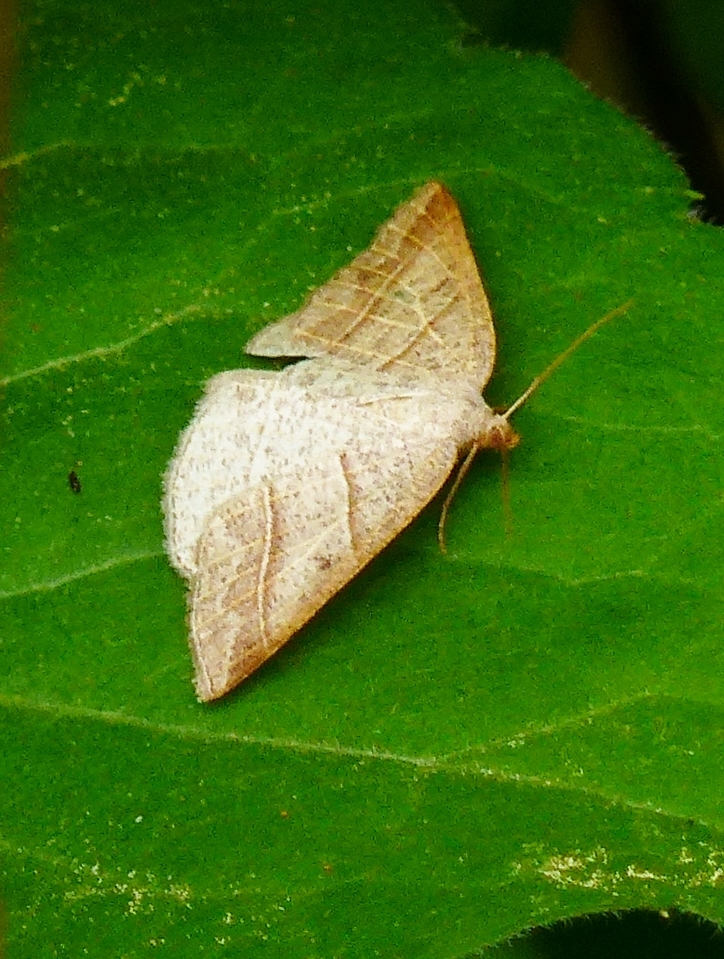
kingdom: Animalia
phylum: Arthropoda
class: Insecta
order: Lepidoptera
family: Pterophoridae
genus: Pterophorus
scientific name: Pterophorus Petrophora subaequaria
